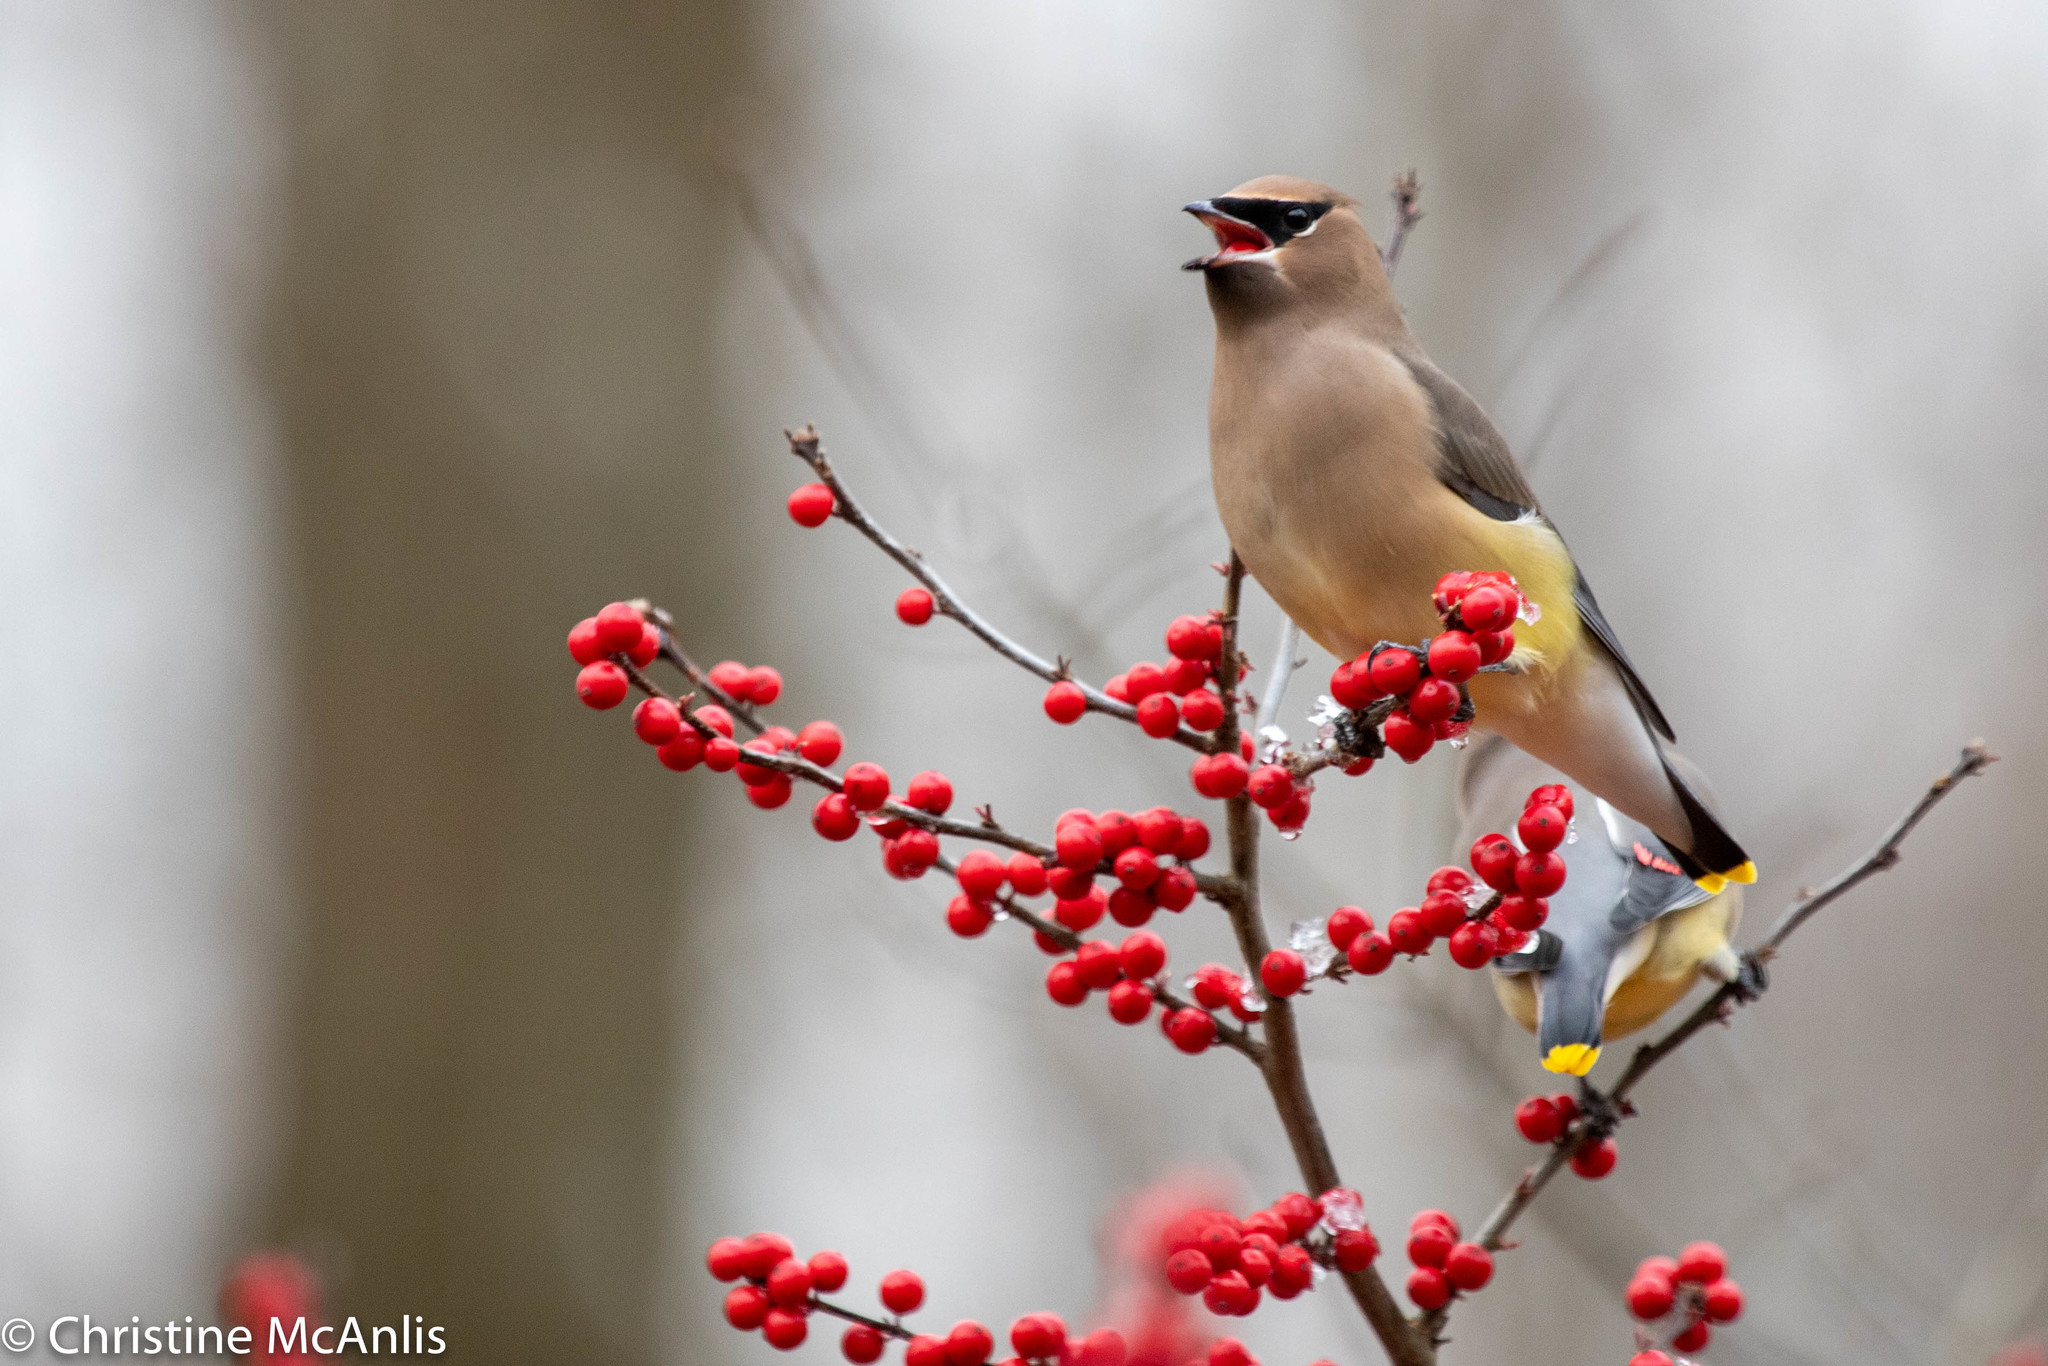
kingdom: Animalia
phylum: Chordata
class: Aves
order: Passeriformes
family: Bombycillidae
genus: Bombycilla
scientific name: Bombycilla cedrorum
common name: Cedar waxwing
